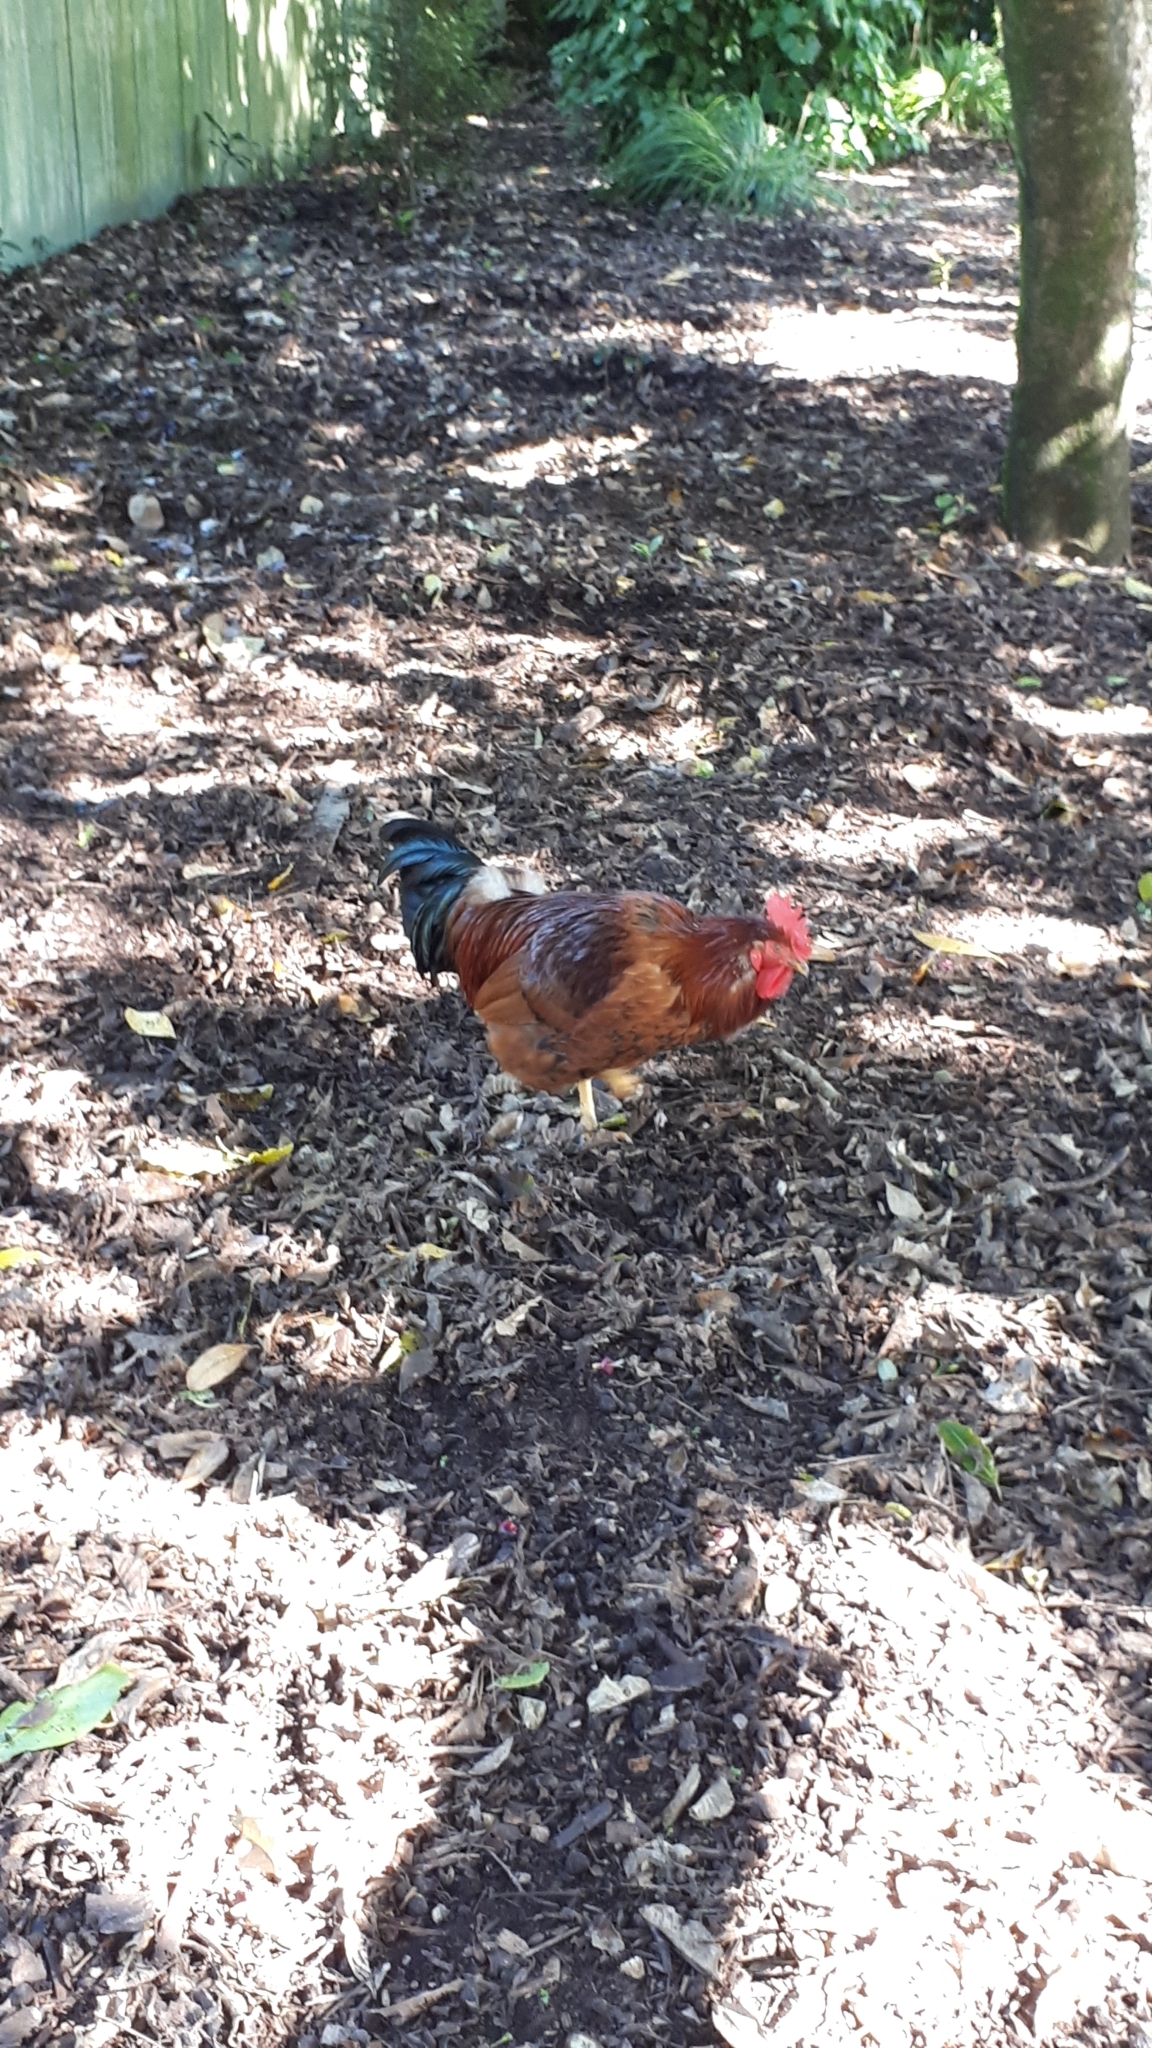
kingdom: Animalia
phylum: Chordata
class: Aves
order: Galliformes
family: Phasianidae
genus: Gallus
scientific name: Gallus gallus
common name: Red junglefowl
